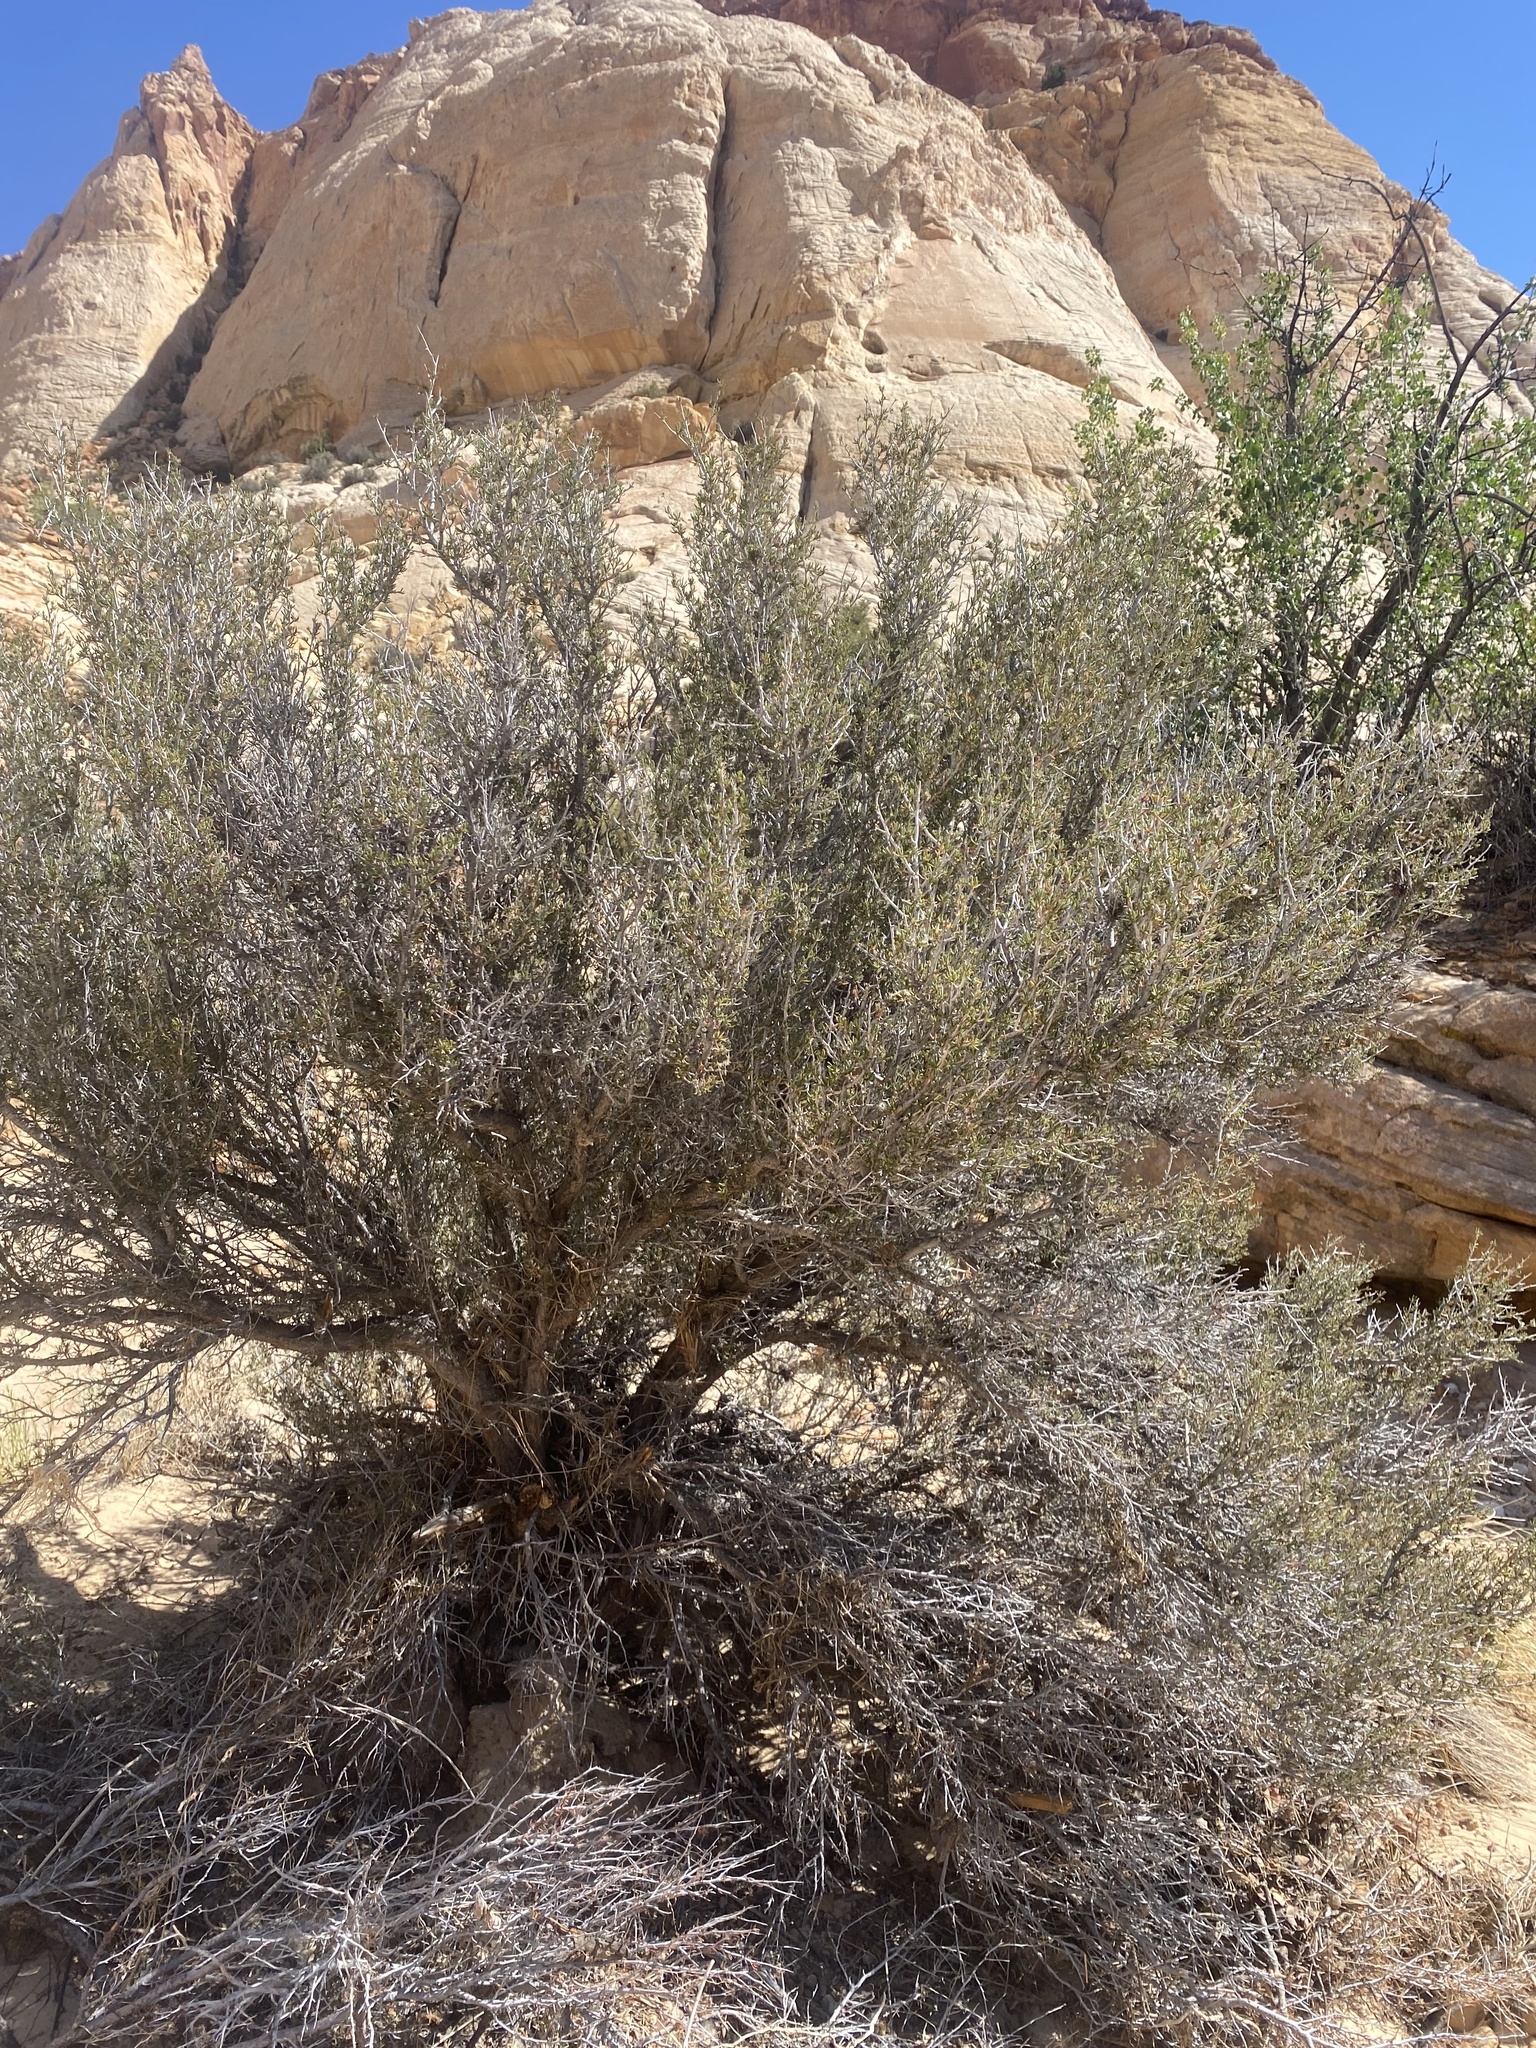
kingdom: Plantae
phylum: Tracheophyta
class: Magnoliopsida
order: Rosales
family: Rosaceae
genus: Cercocarpus
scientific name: Cercocarpus intricatus
